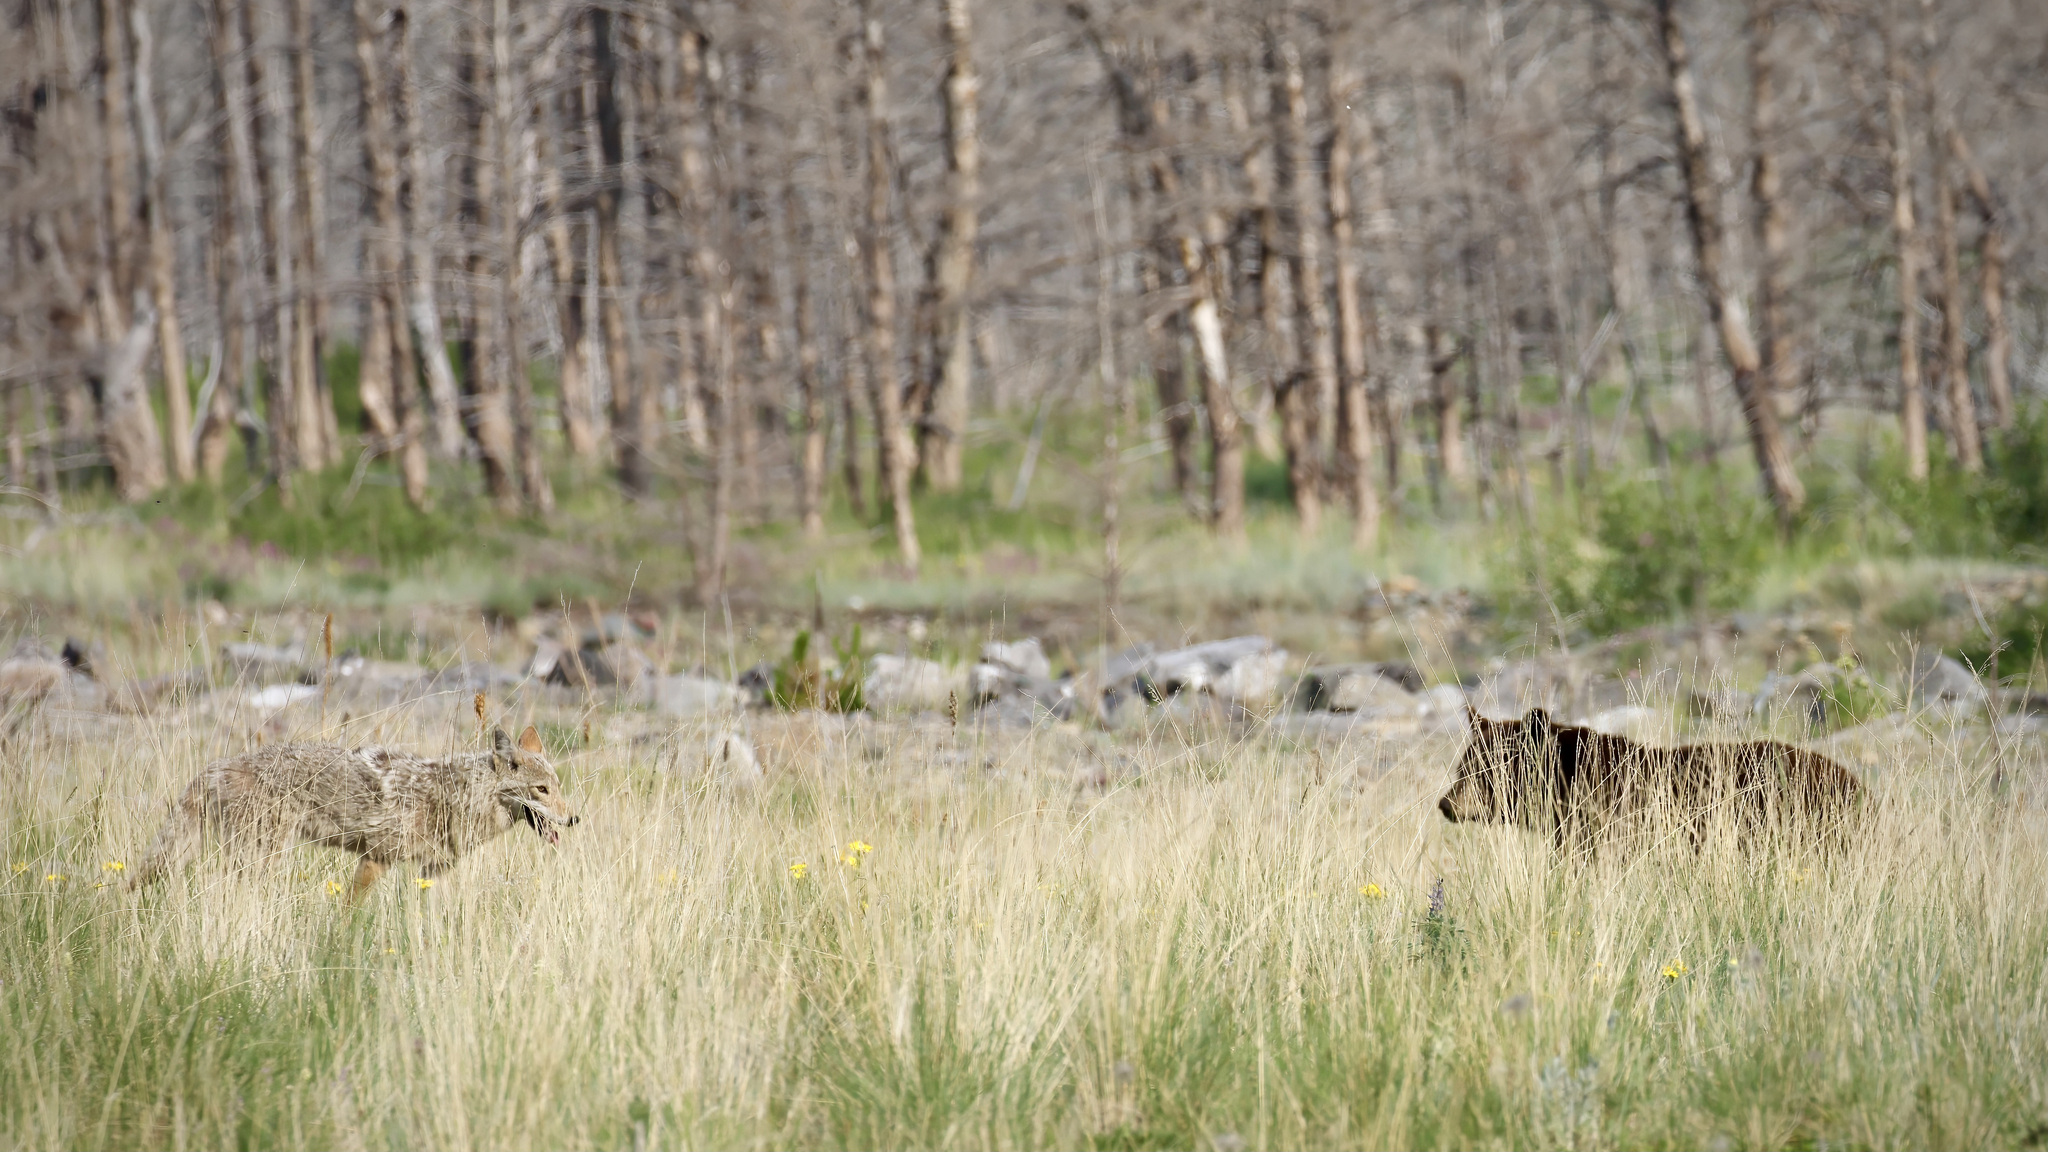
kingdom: Animalia
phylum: Chordata
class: Mammalia
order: Carnivora
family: Canidae
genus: Canis
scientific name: Canis latrans
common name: Coyote
